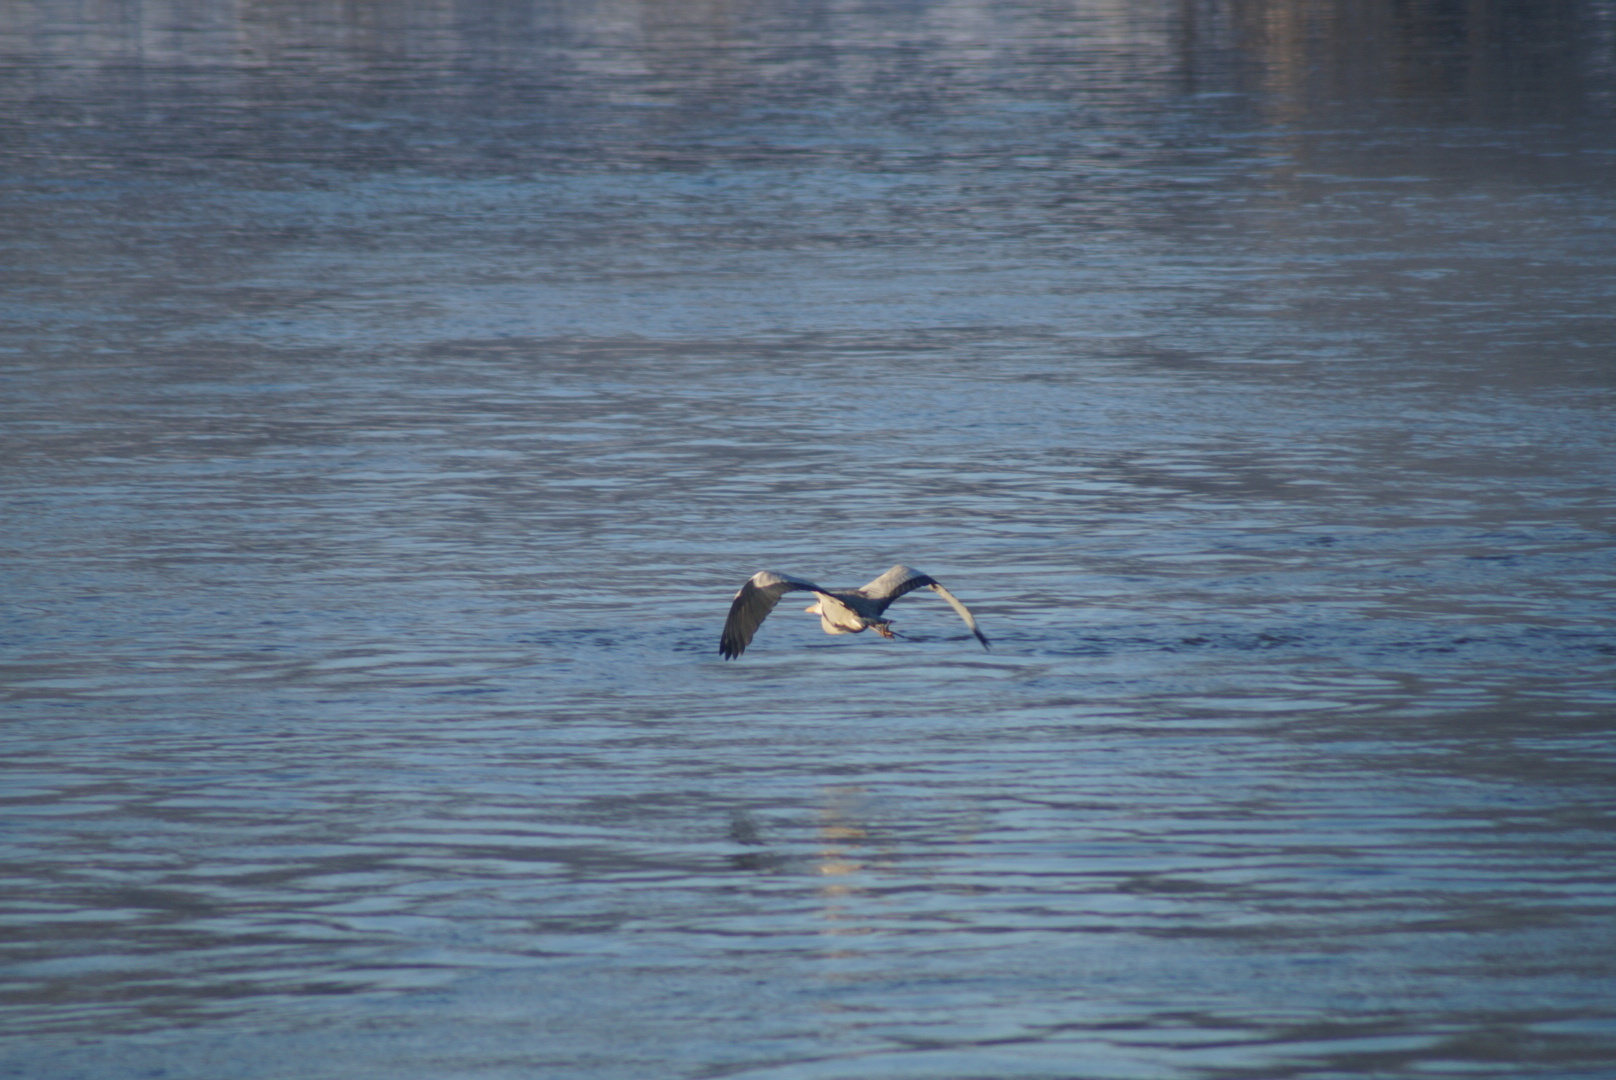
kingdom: Animalia
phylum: Chordata
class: Aves
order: Pelecaniformes
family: Ardeidae
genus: Ardea
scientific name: Ardea cinerea
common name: Grey heron
